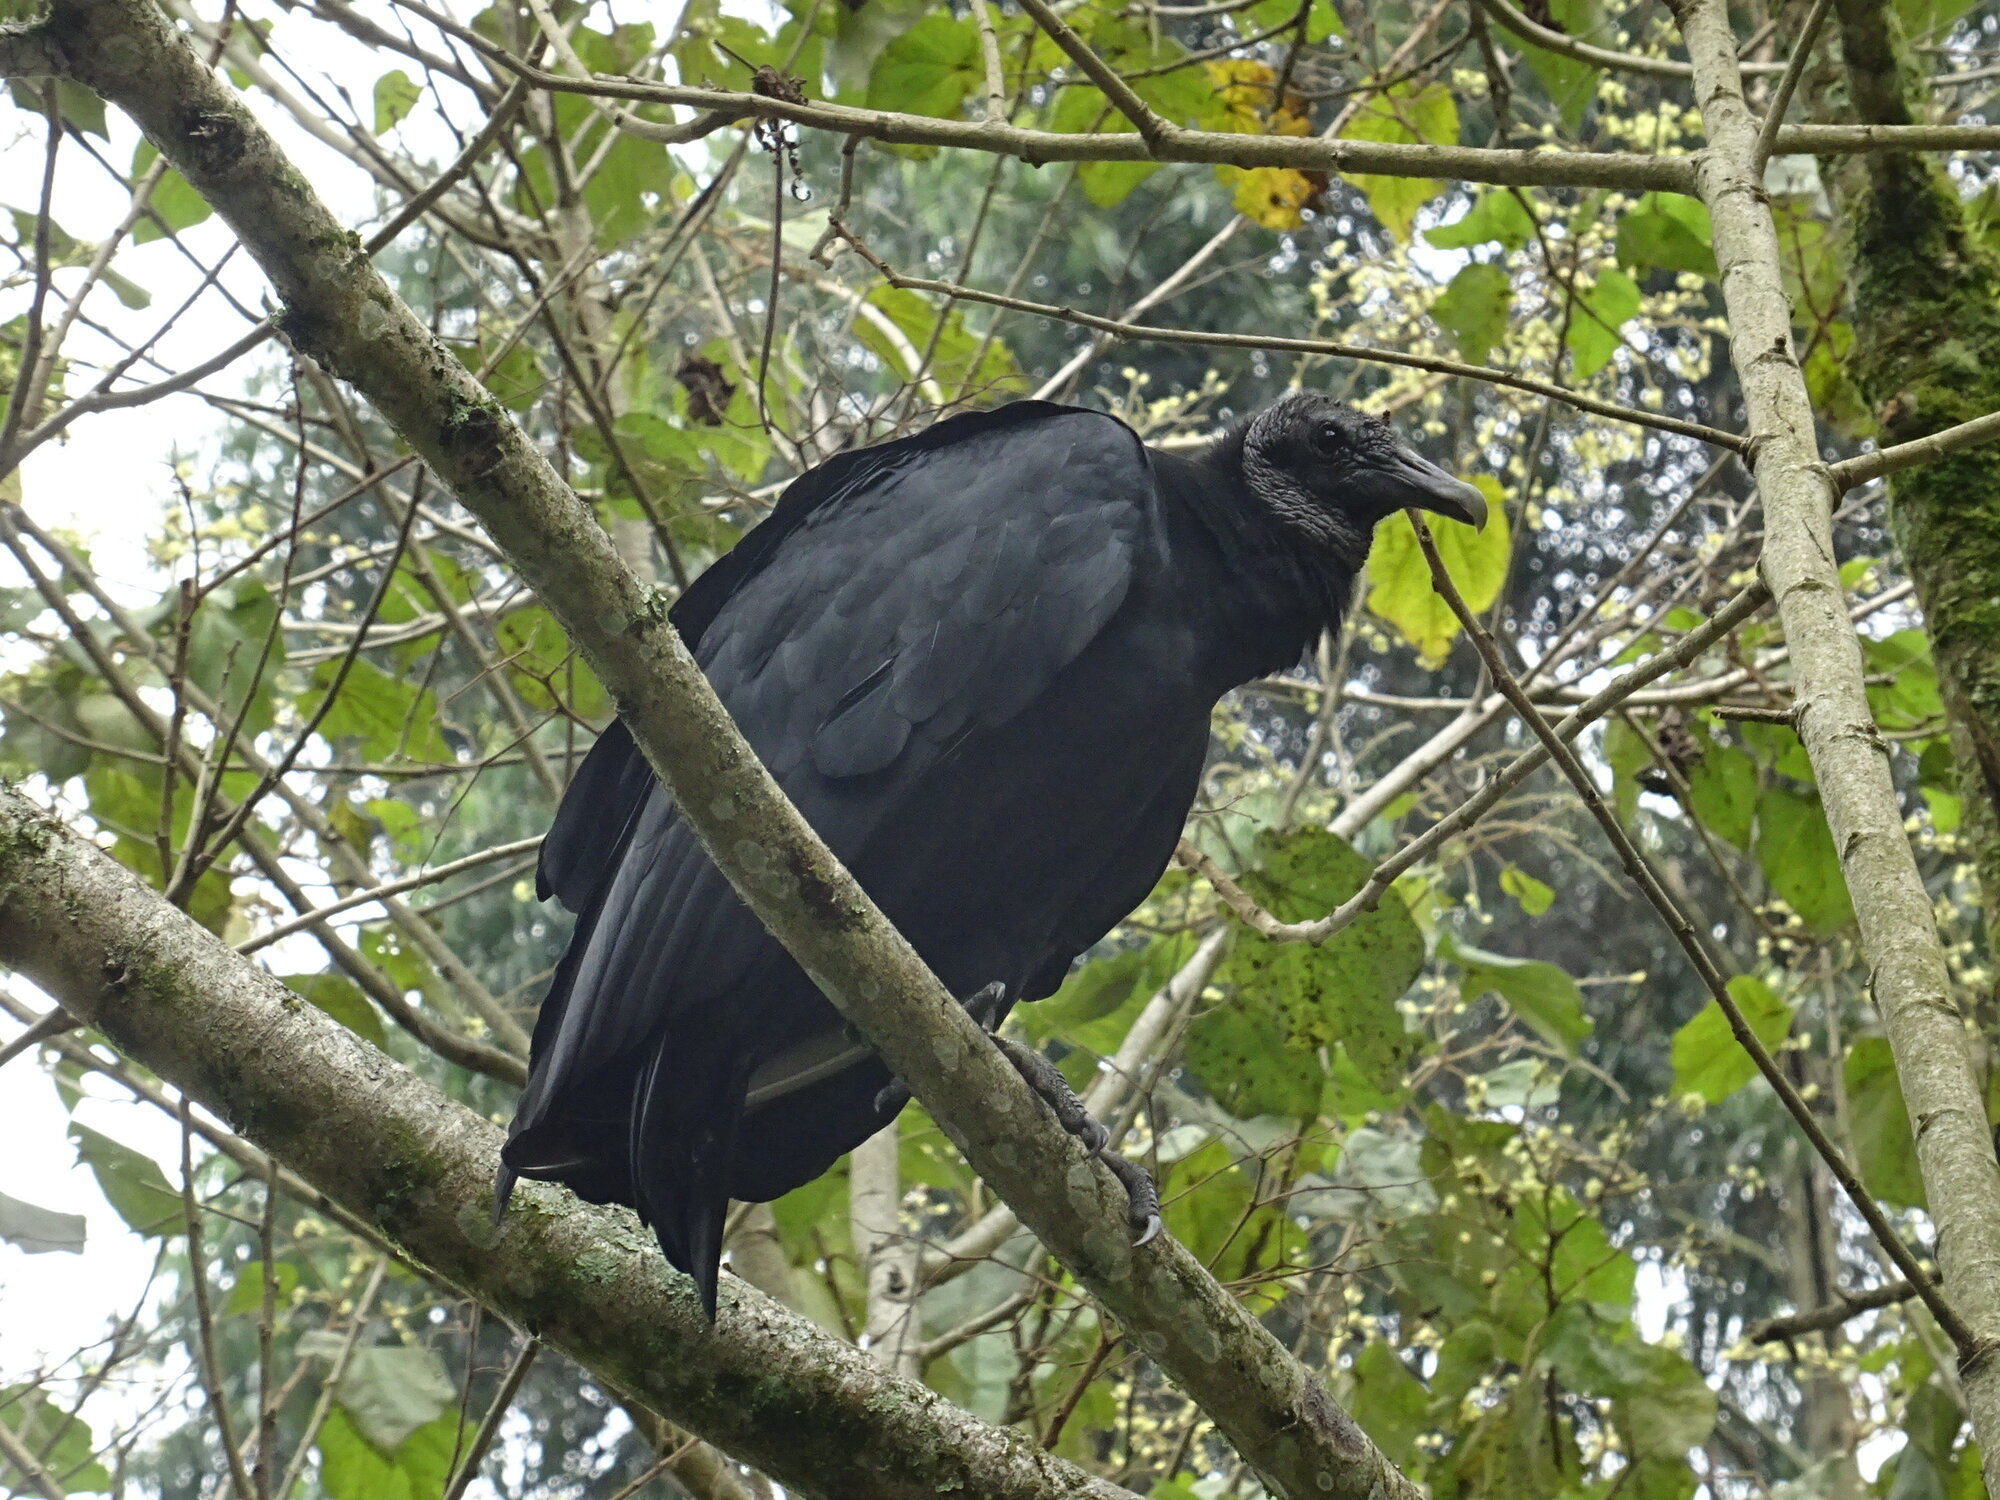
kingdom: Animalia
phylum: Chordata
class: Aves
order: Accipitriformes
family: Cathartidae
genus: Coragyps
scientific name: Coragyps atratus
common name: Black vulture
